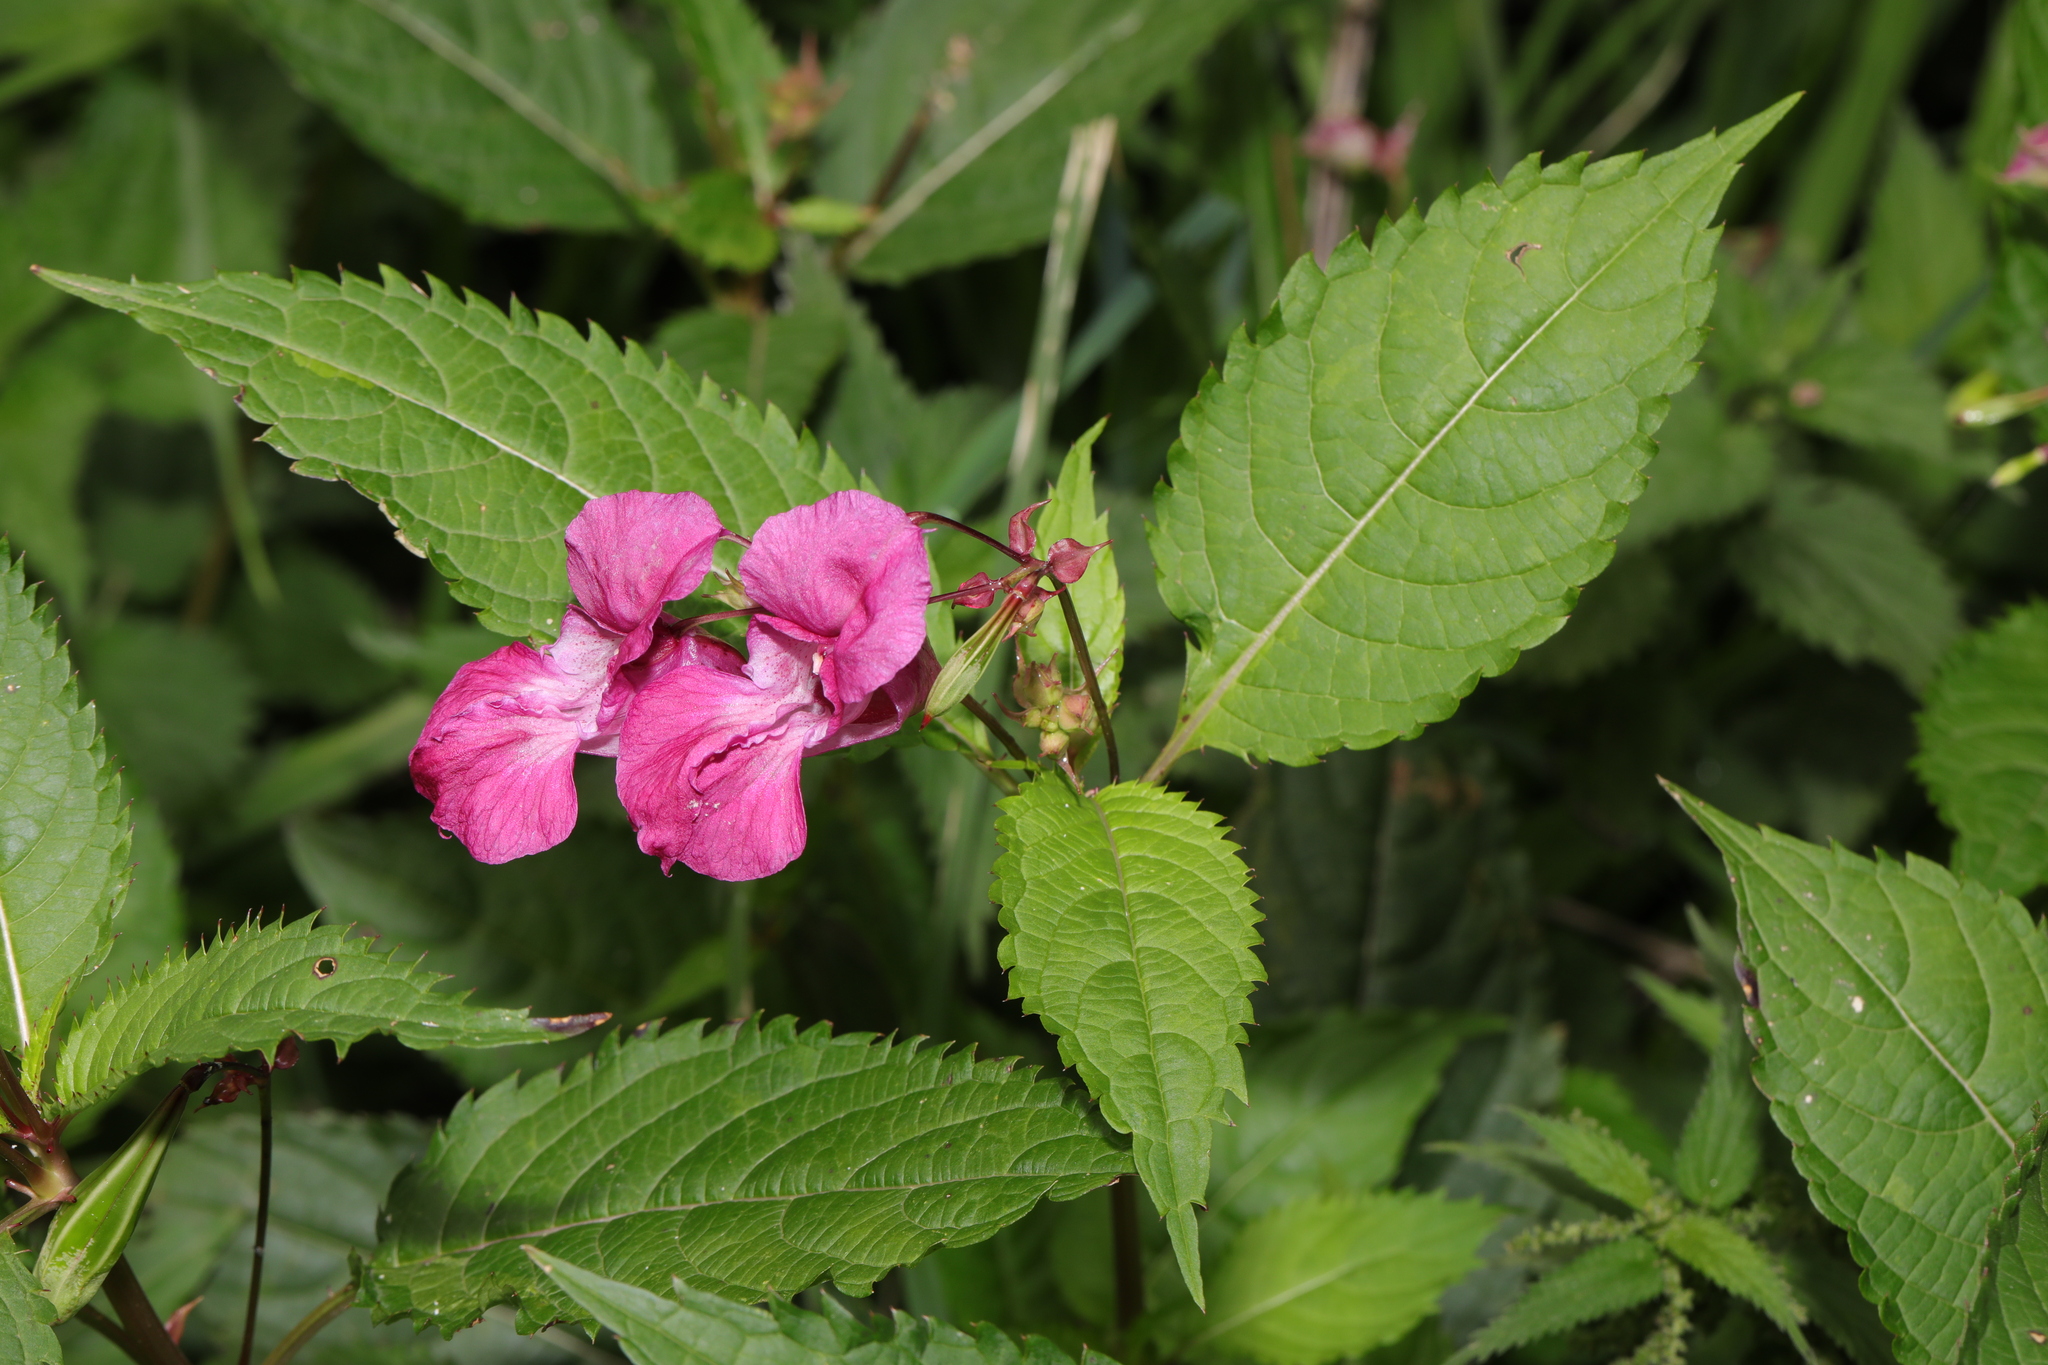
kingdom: Plantae
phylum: Tracheophyta
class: Magnoliopsida
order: Ericales
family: Balsaminaceae
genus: Impatiens
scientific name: Impatiens glandulifera
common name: Himalayan balsam
